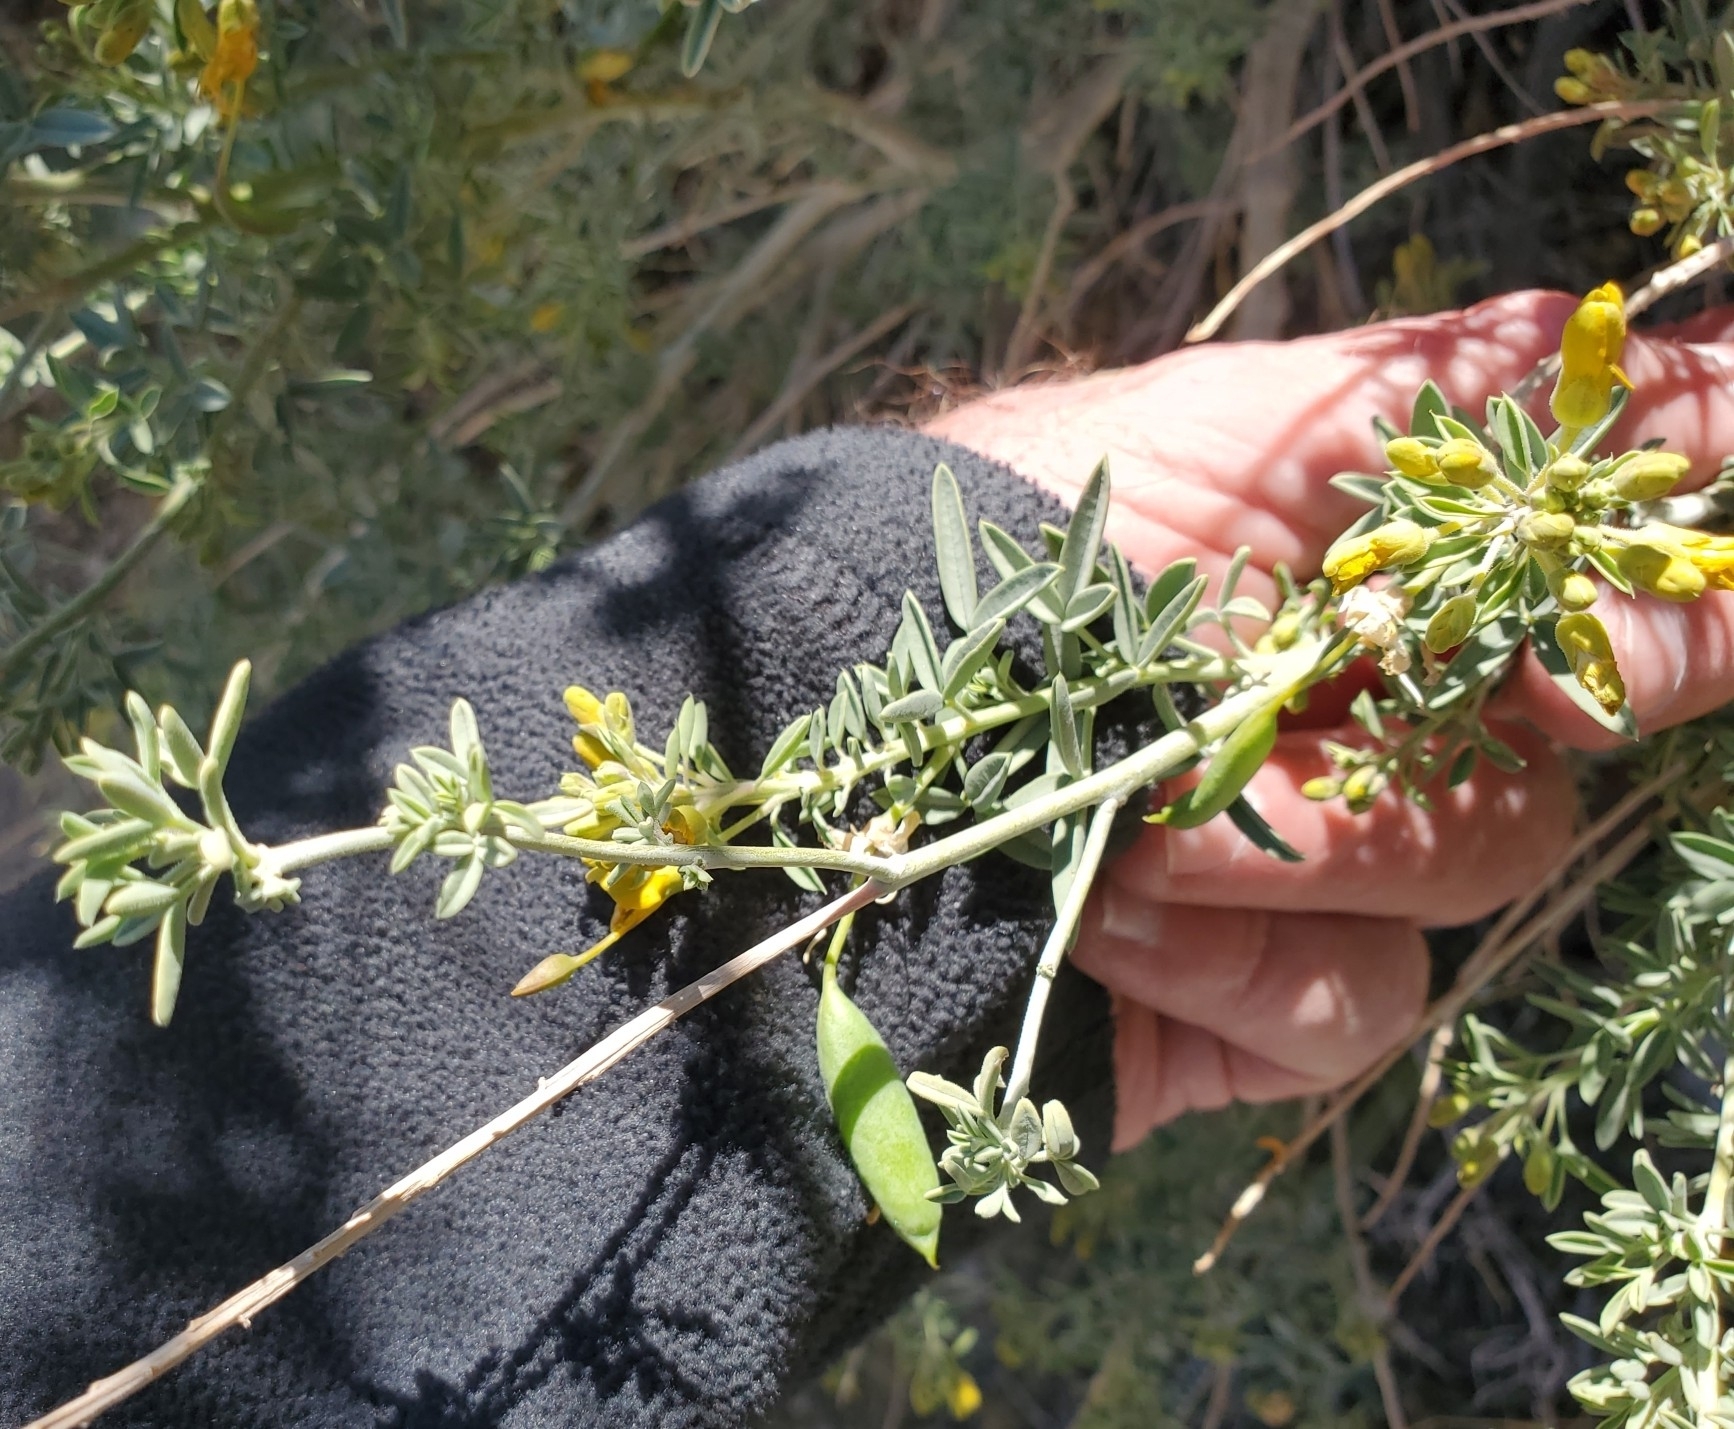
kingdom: Plantae
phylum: Tracheophyta
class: Magnoliopsida
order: Brassicales
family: Cleomaceae
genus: Cleomella
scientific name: Cleomella arborea
